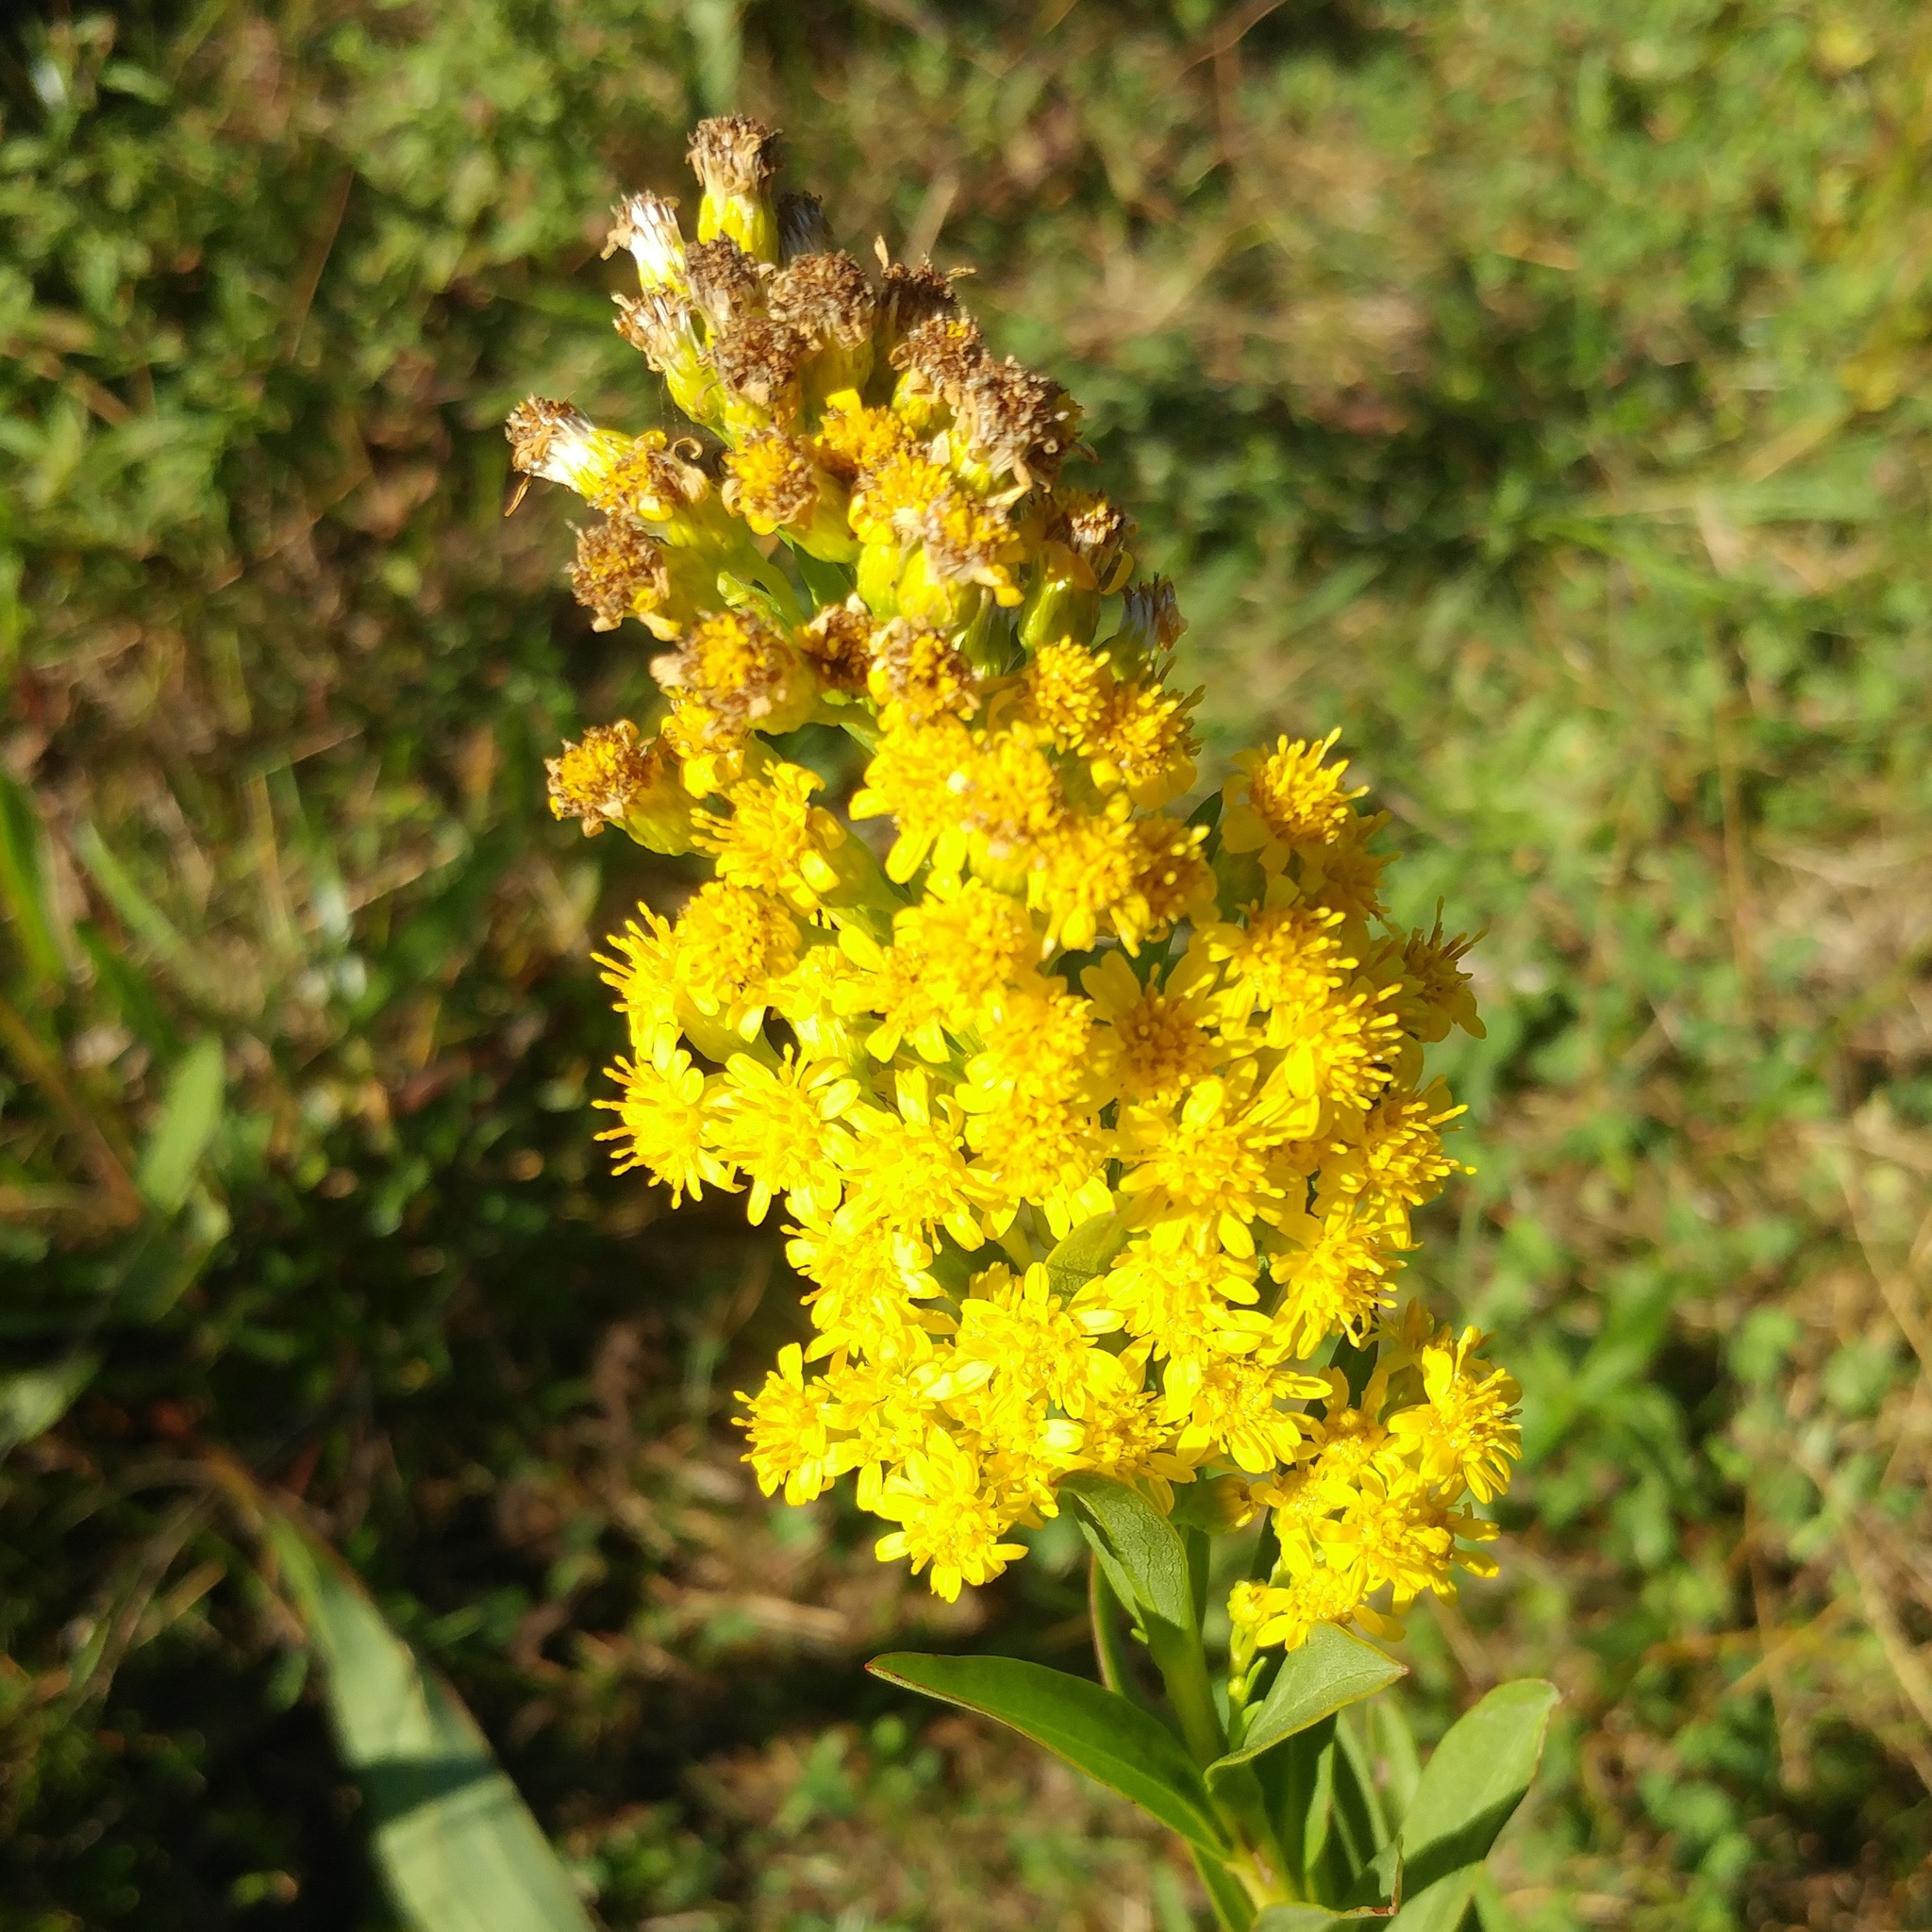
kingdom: Plantae
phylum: Tracheophyta
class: Magnoliopsida
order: Asterales
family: Asteraceae
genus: Solidago
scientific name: Solidago sempervirens
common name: Salt-marsh goldenrod
